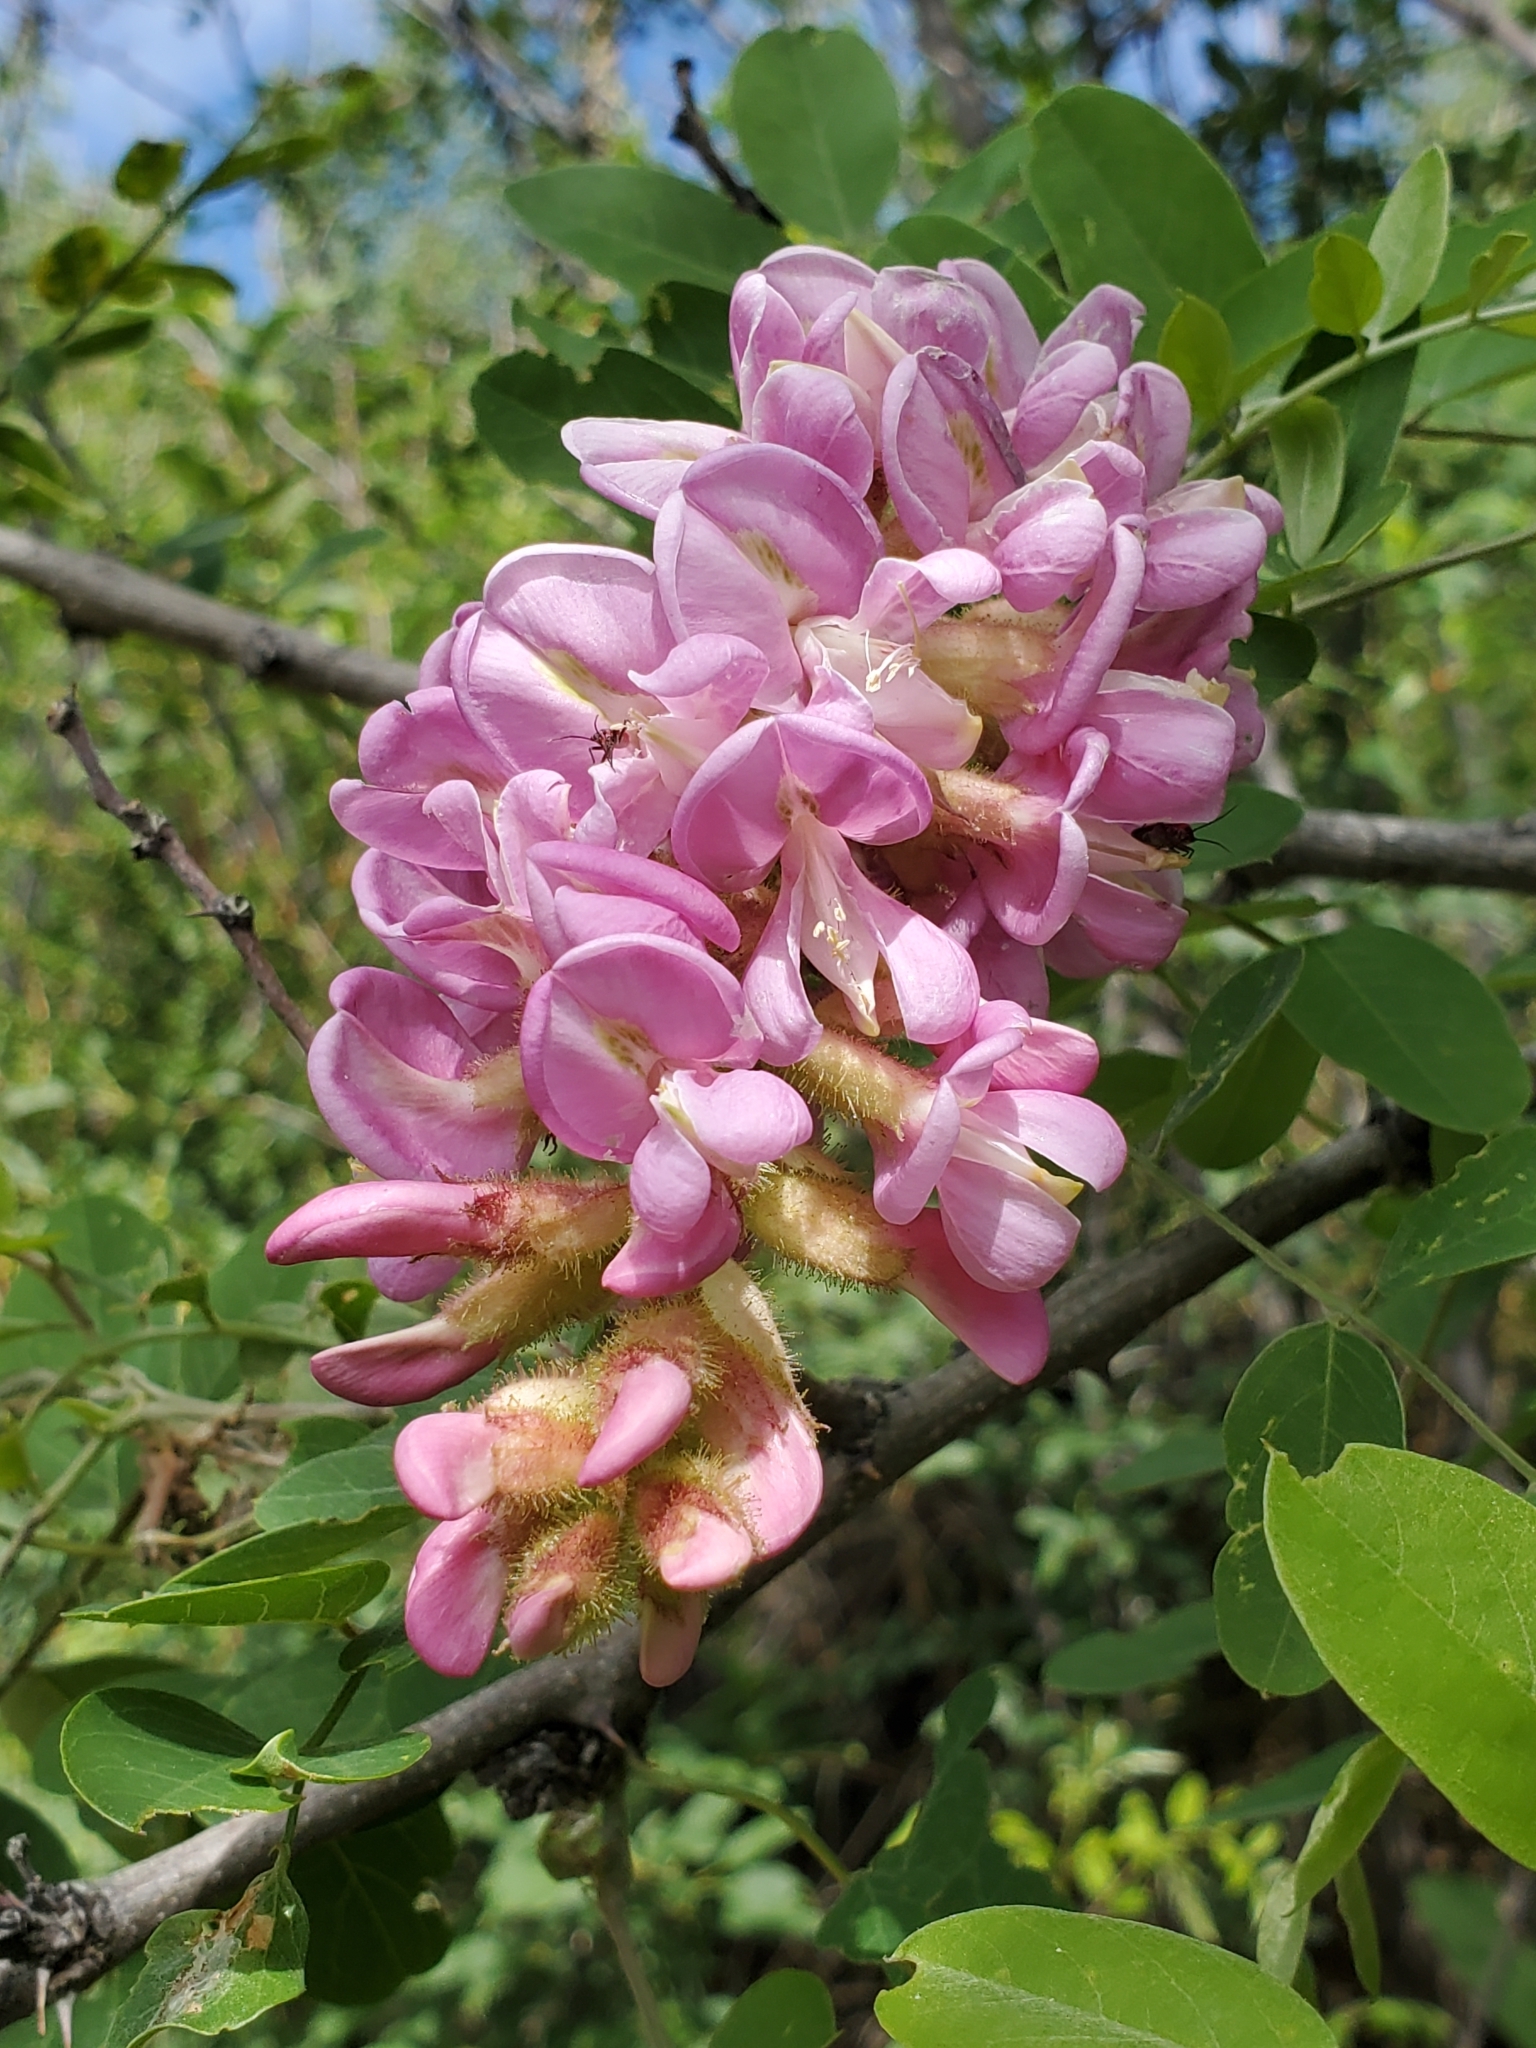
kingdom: Plantae
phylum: Tracheophyta
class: Magnoliopsida
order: Fabales
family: Fabaceae
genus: Robinia
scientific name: Robinia neomexicana
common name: New mexico locust
